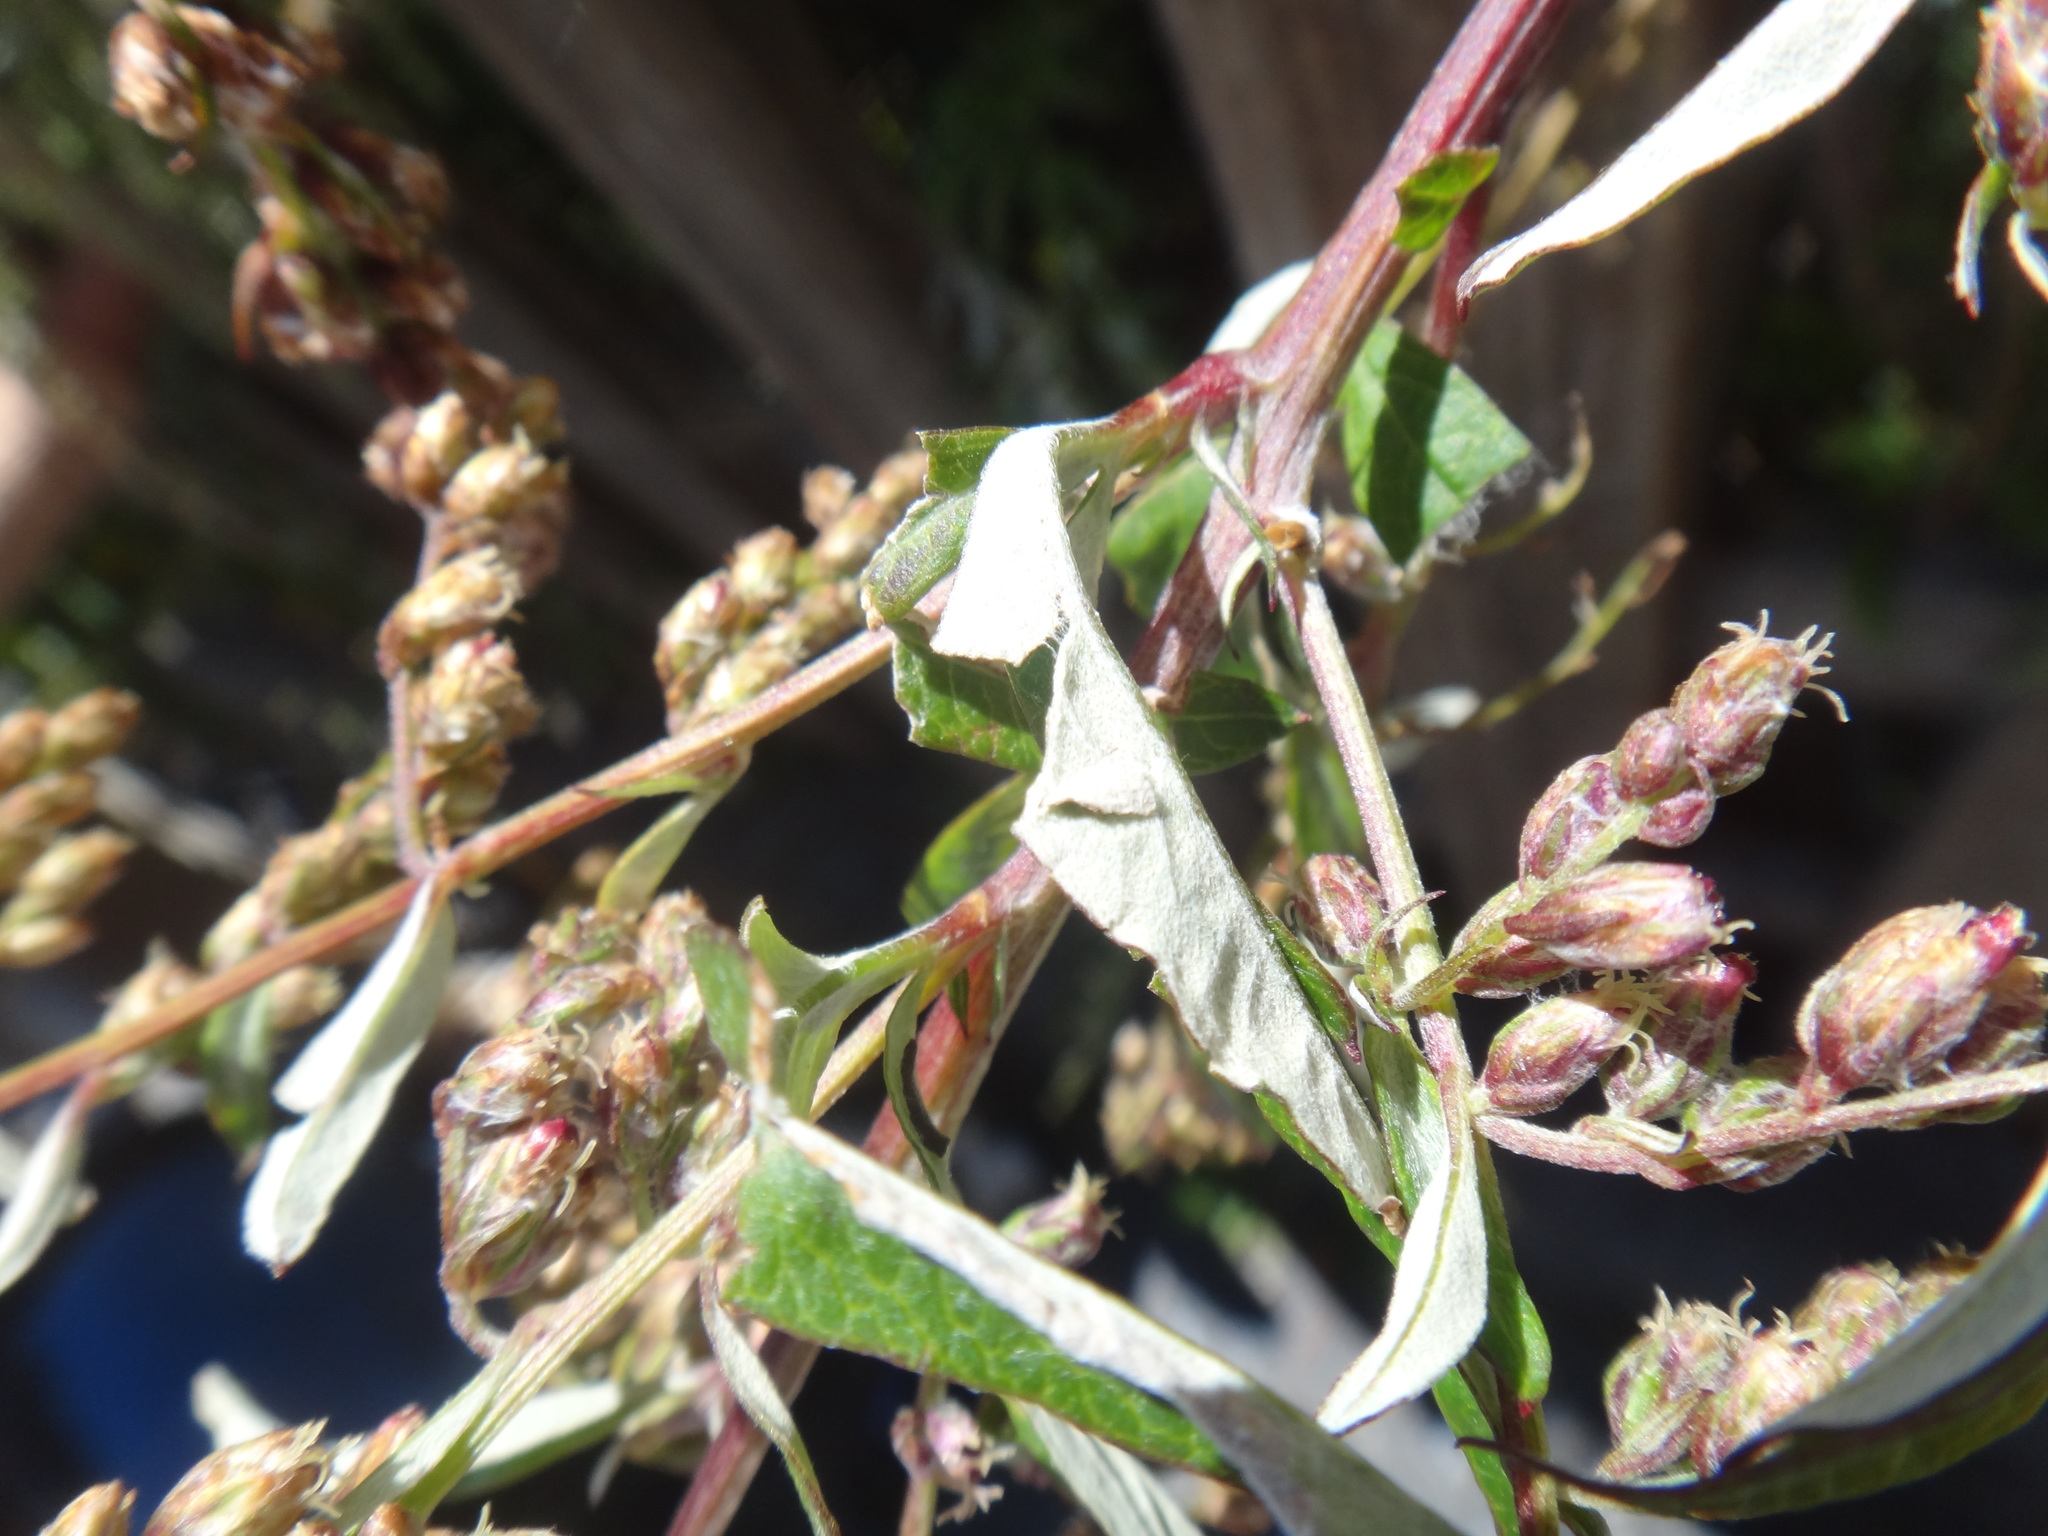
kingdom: Plantae
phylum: Tracheophyta
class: Magnoliopsida
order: Asterales
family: Asteraceae
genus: Artemisia
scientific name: Artemisia indica
